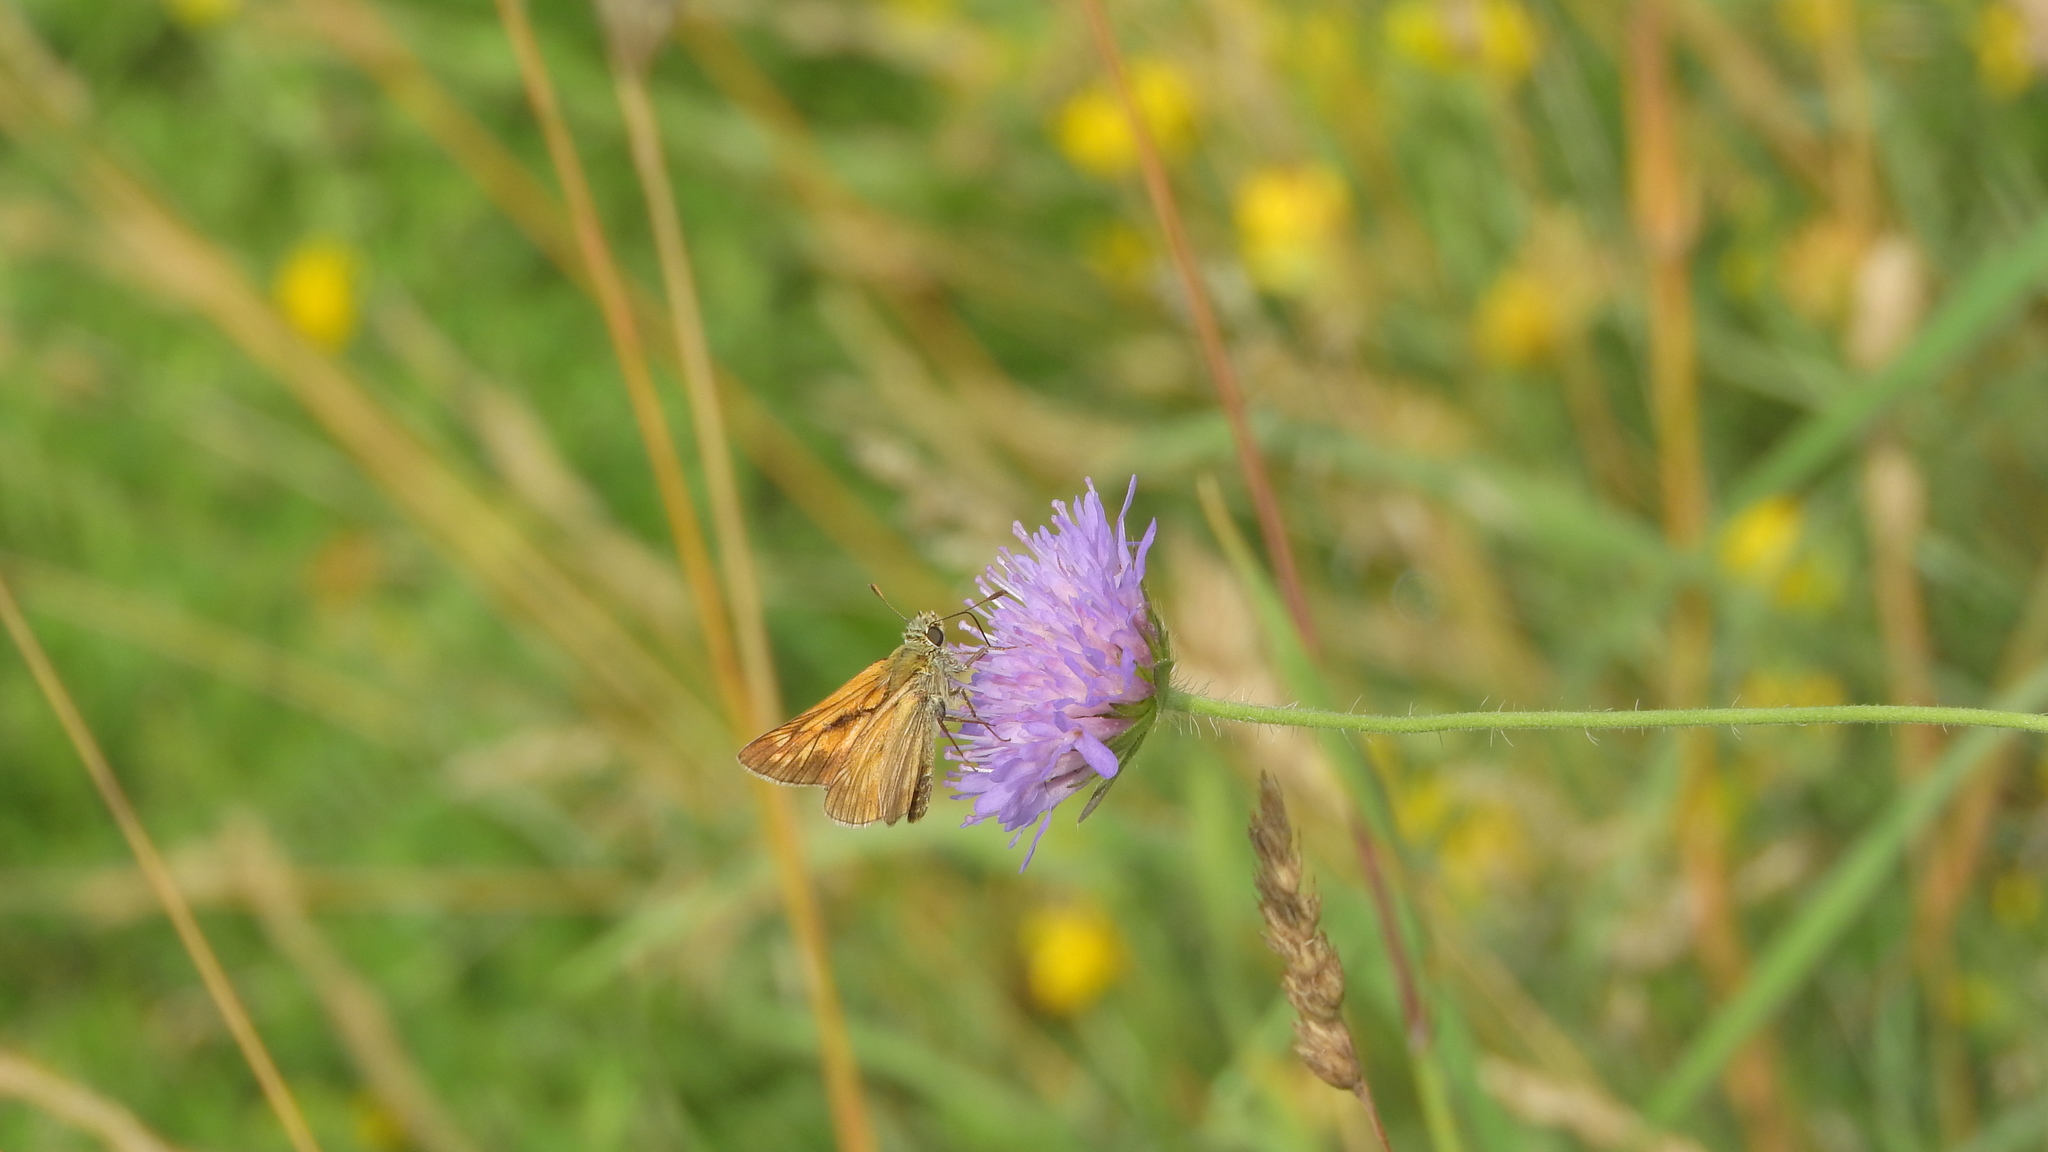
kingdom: Animalia
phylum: Arthropoda
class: Insecta
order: Lepidoptera
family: Hesperiidae
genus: Ochlodes
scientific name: Ochlodes venata
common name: Large skipper
